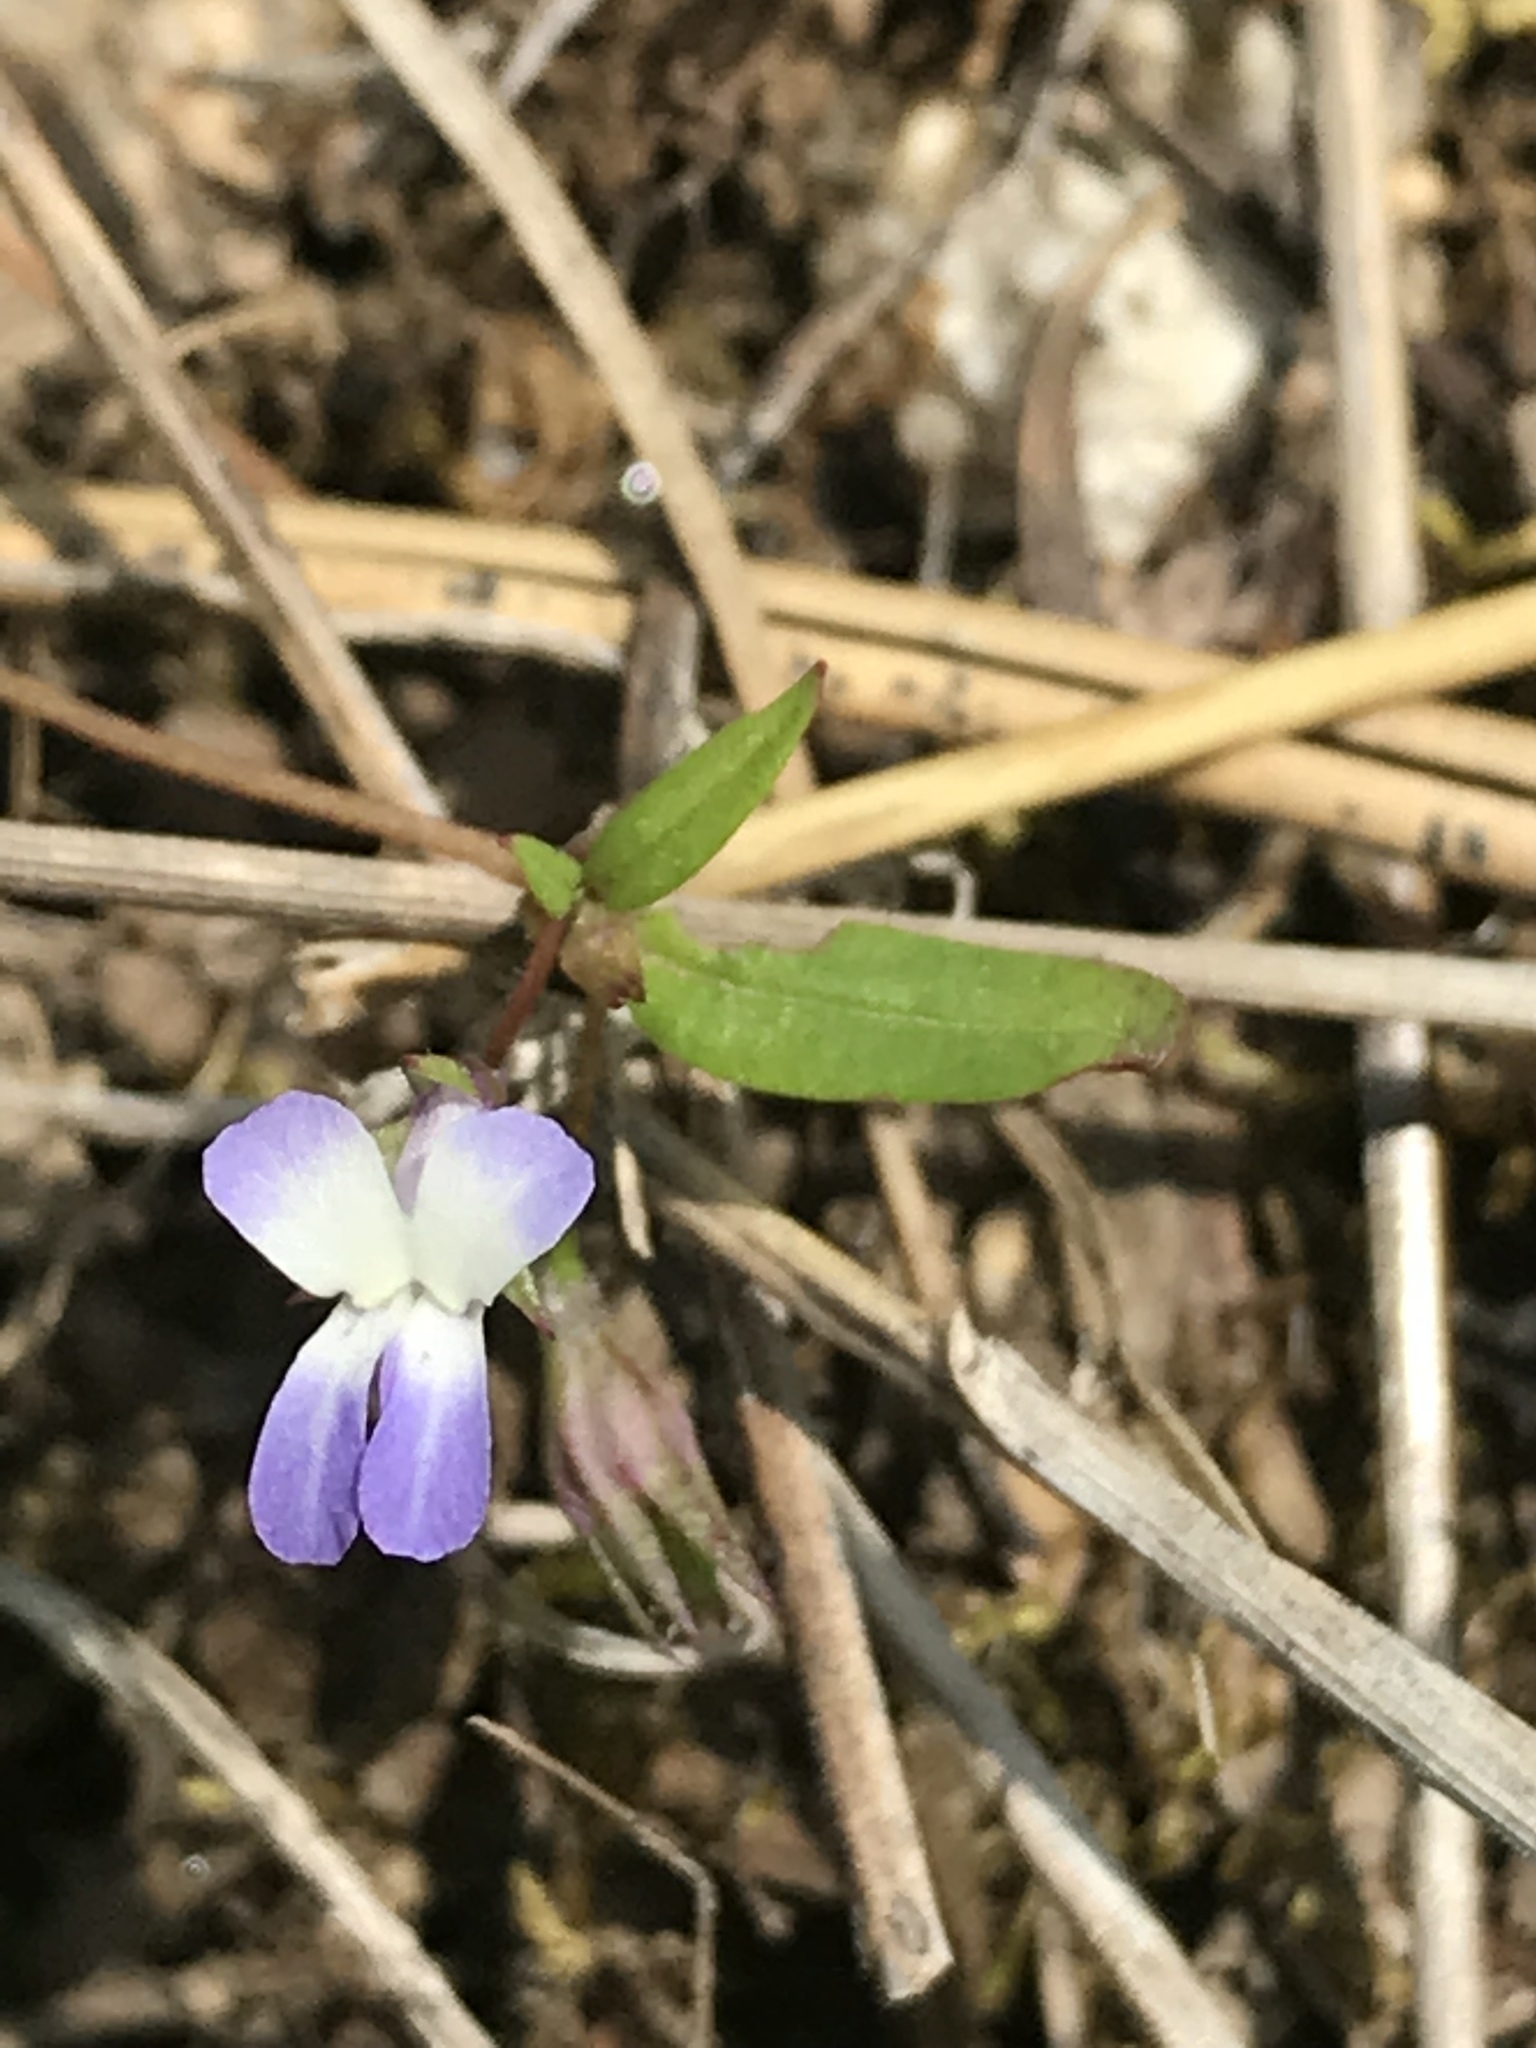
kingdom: Plantae
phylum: Tracheophyta
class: Magnoliopsida
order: Lamiales
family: Plantaginaceae
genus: Collinsia
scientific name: Collinsia parviflora
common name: Blue-lips
